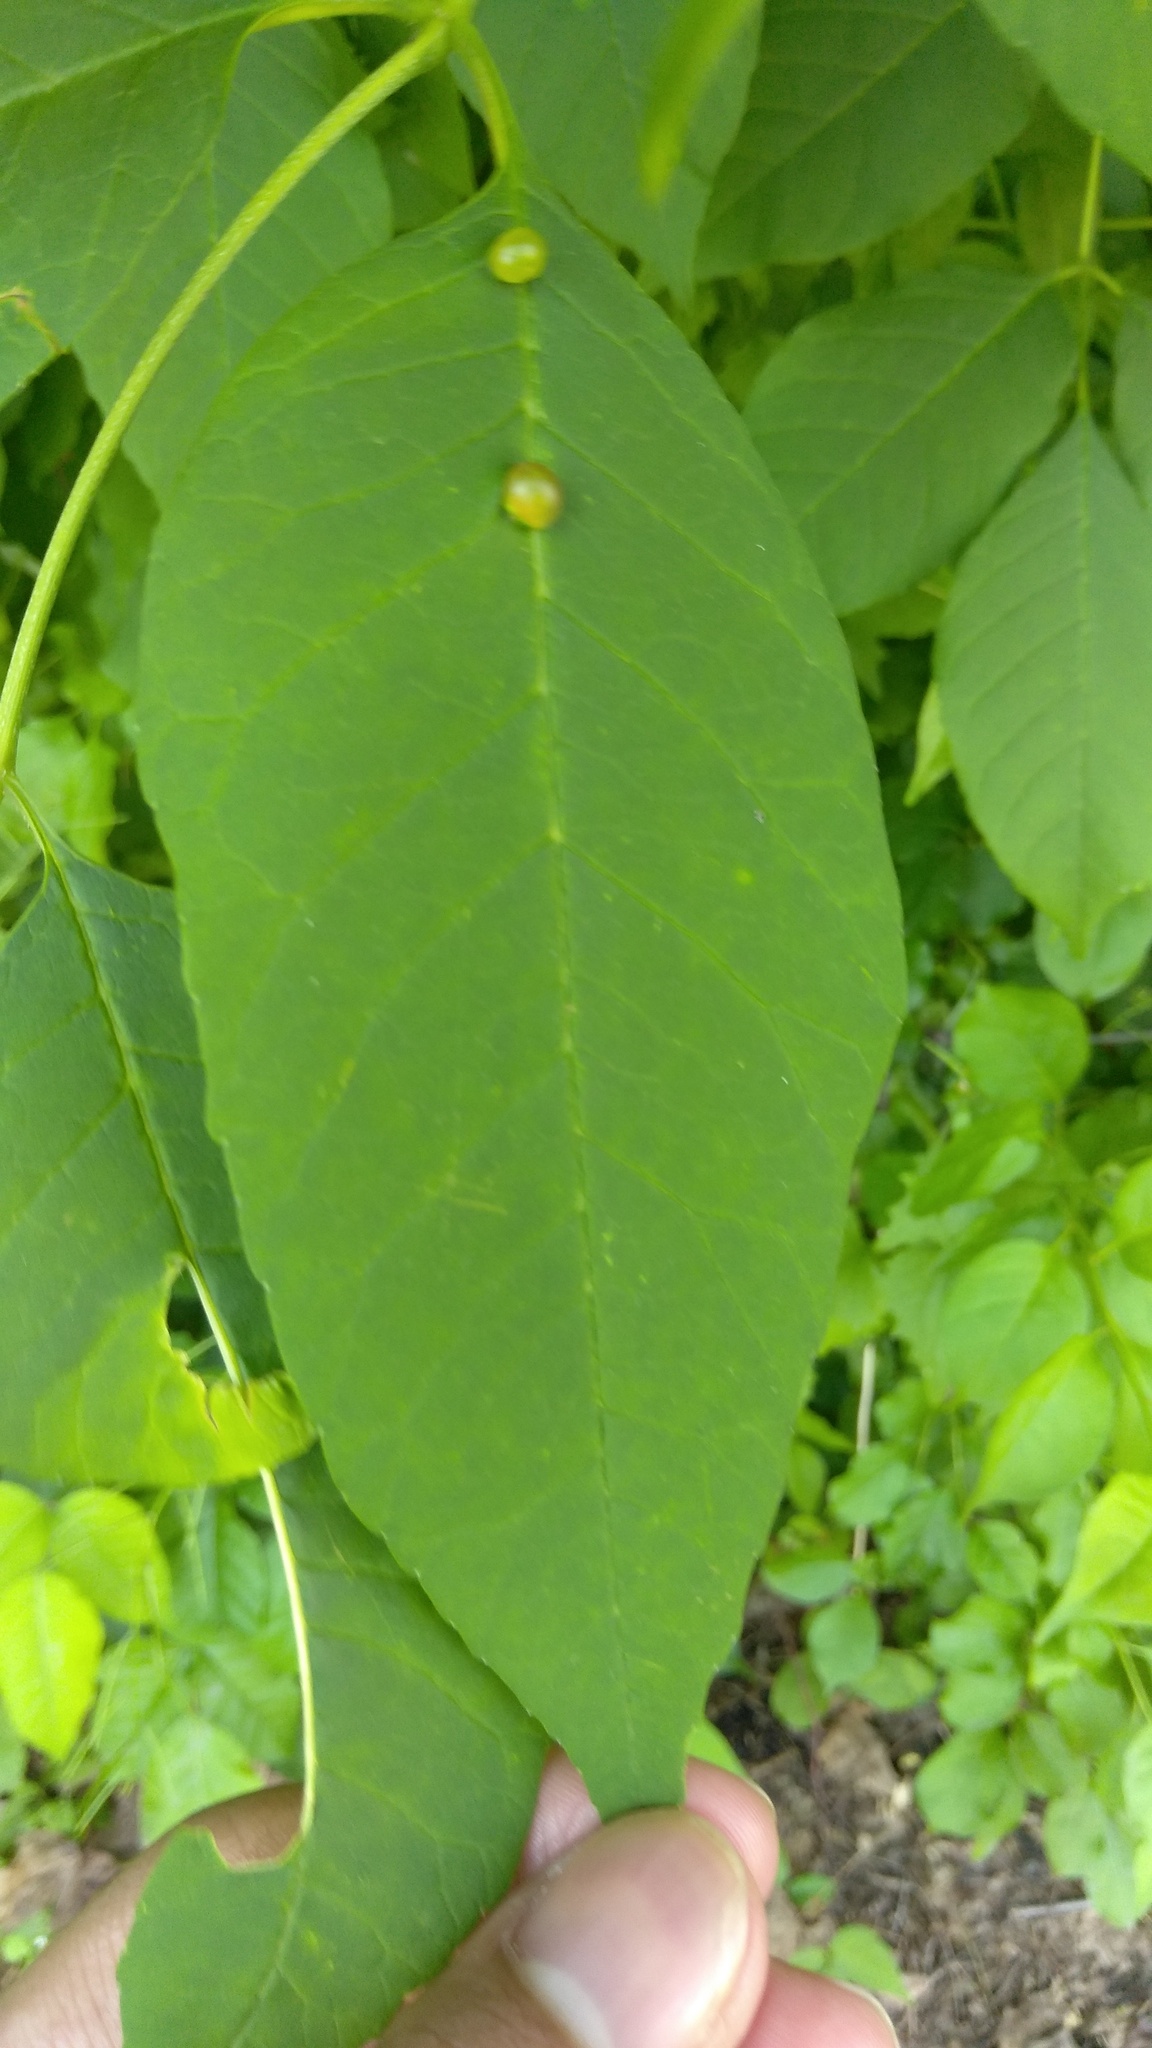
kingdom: Animalia
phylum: Arthropoda
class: Insecta
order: Diptera
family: Cecidomyiidae
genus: Dasineura
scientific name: Dasineura pellex
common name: Ash bullet gall midge
